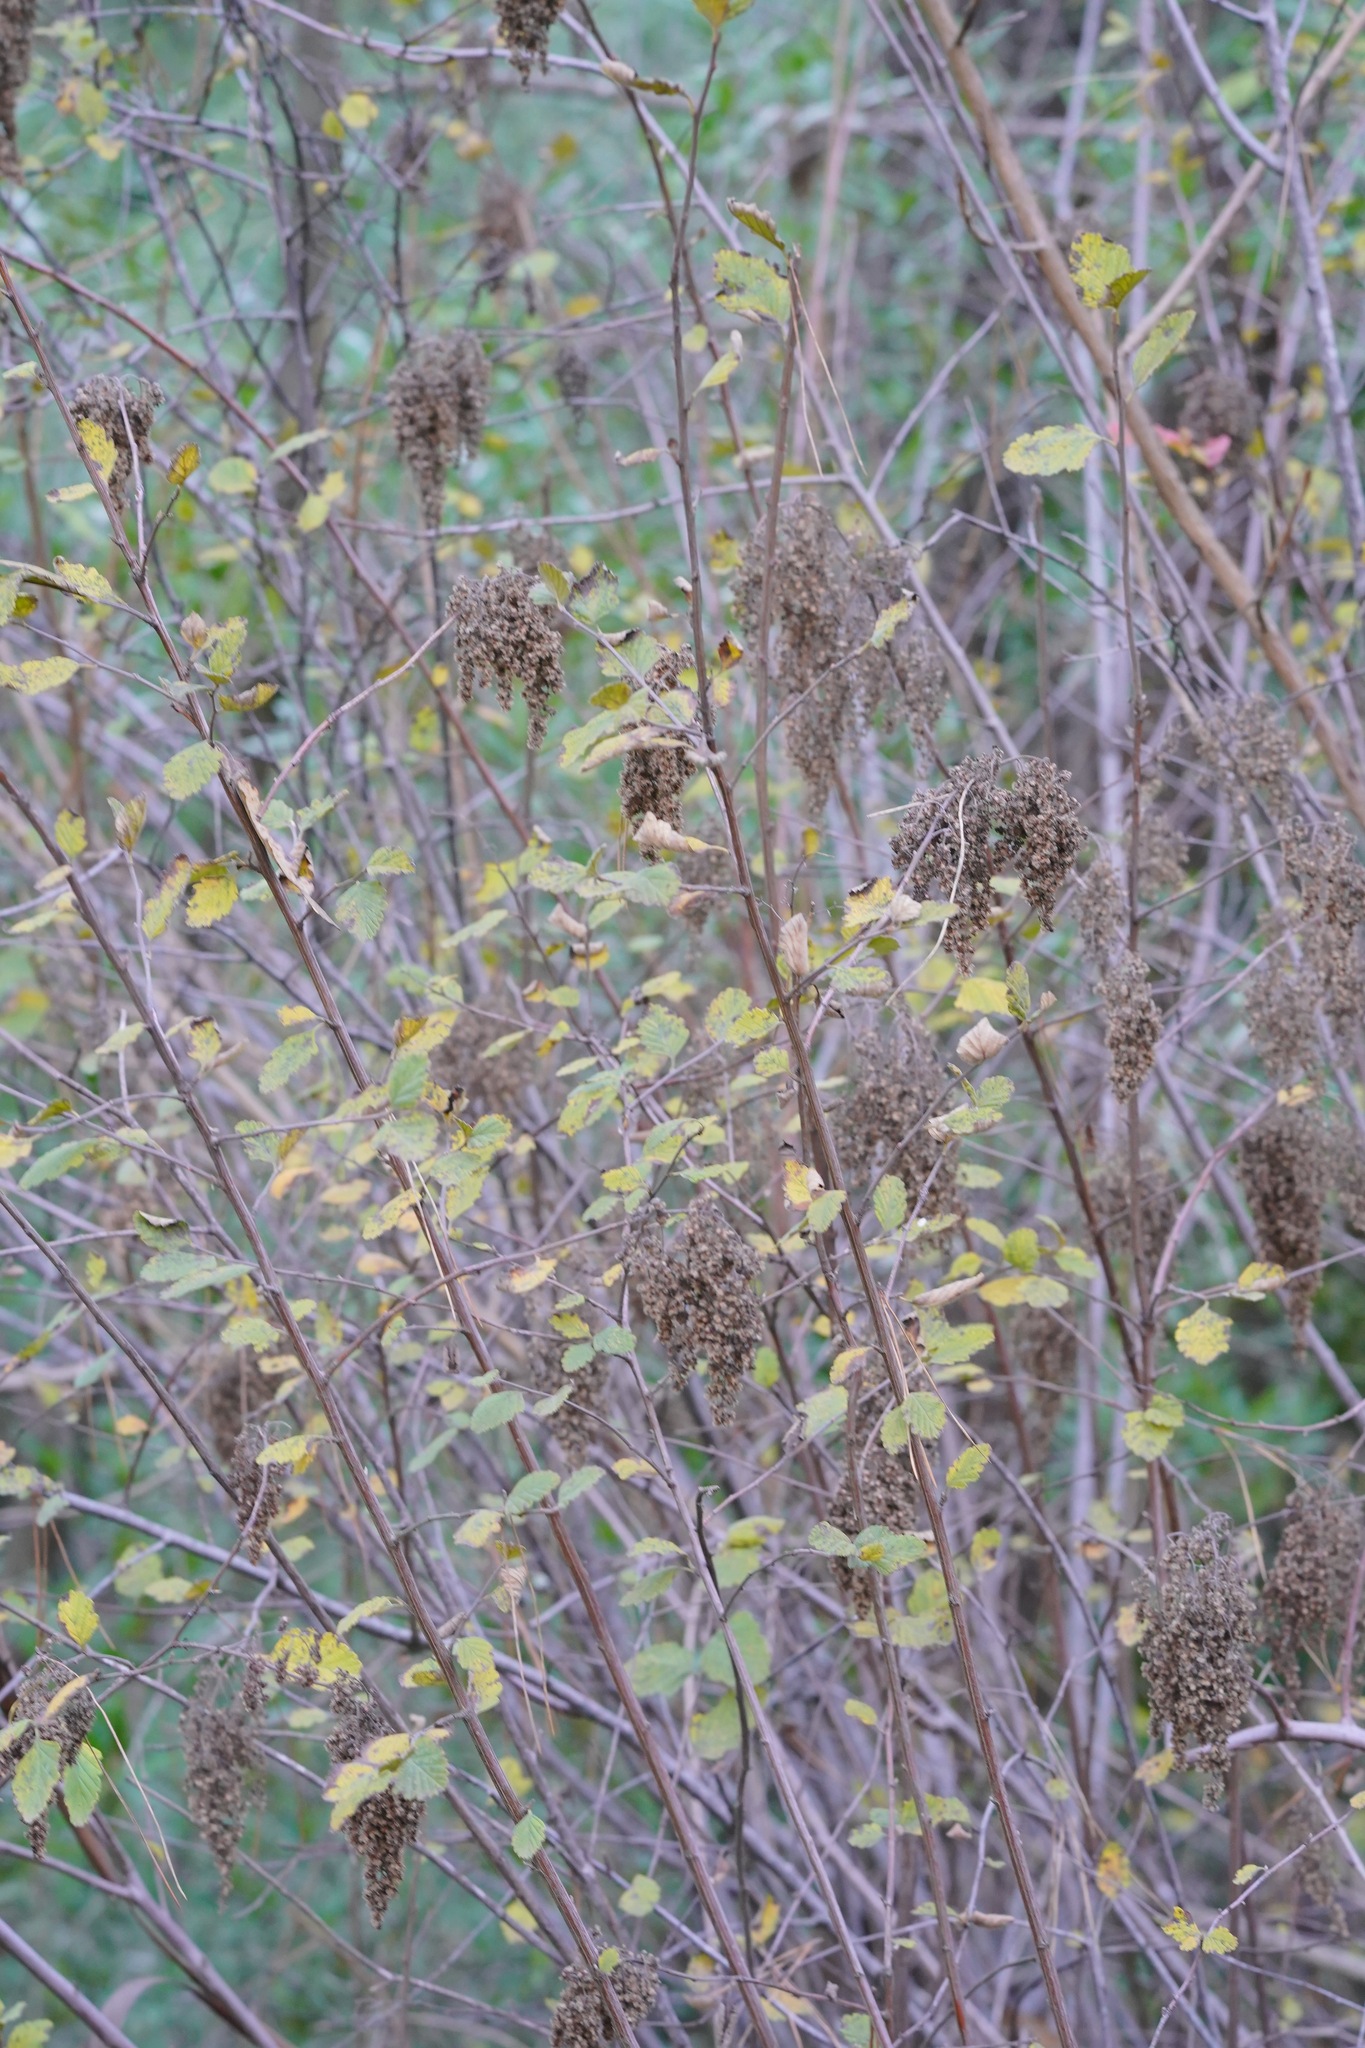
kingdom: Plantae
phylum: Tracheophyta
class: Magnoliopsida
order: Rosales
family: Rosaceae
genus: Holodiscus
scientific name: Holodiscus discolor
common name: Oceanspray
